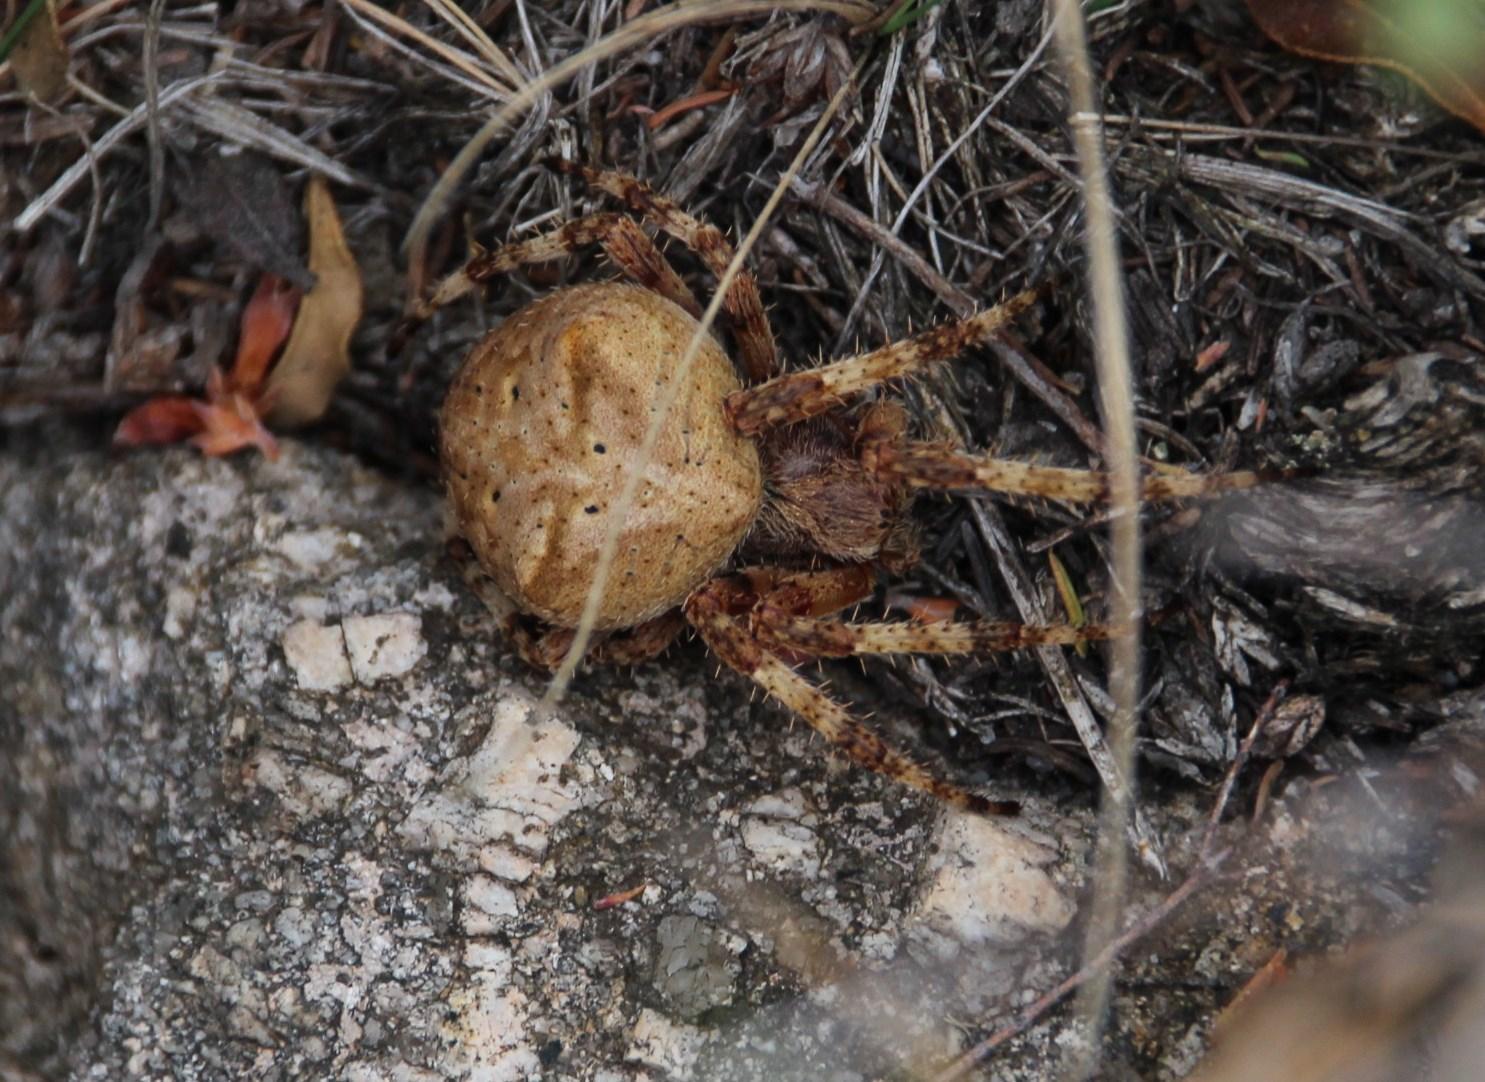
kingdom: Animalia
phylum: Arthropoda
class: Arachnida
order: Araneae
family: Araneidae
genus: Araneus
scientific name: Araneus angulatus
